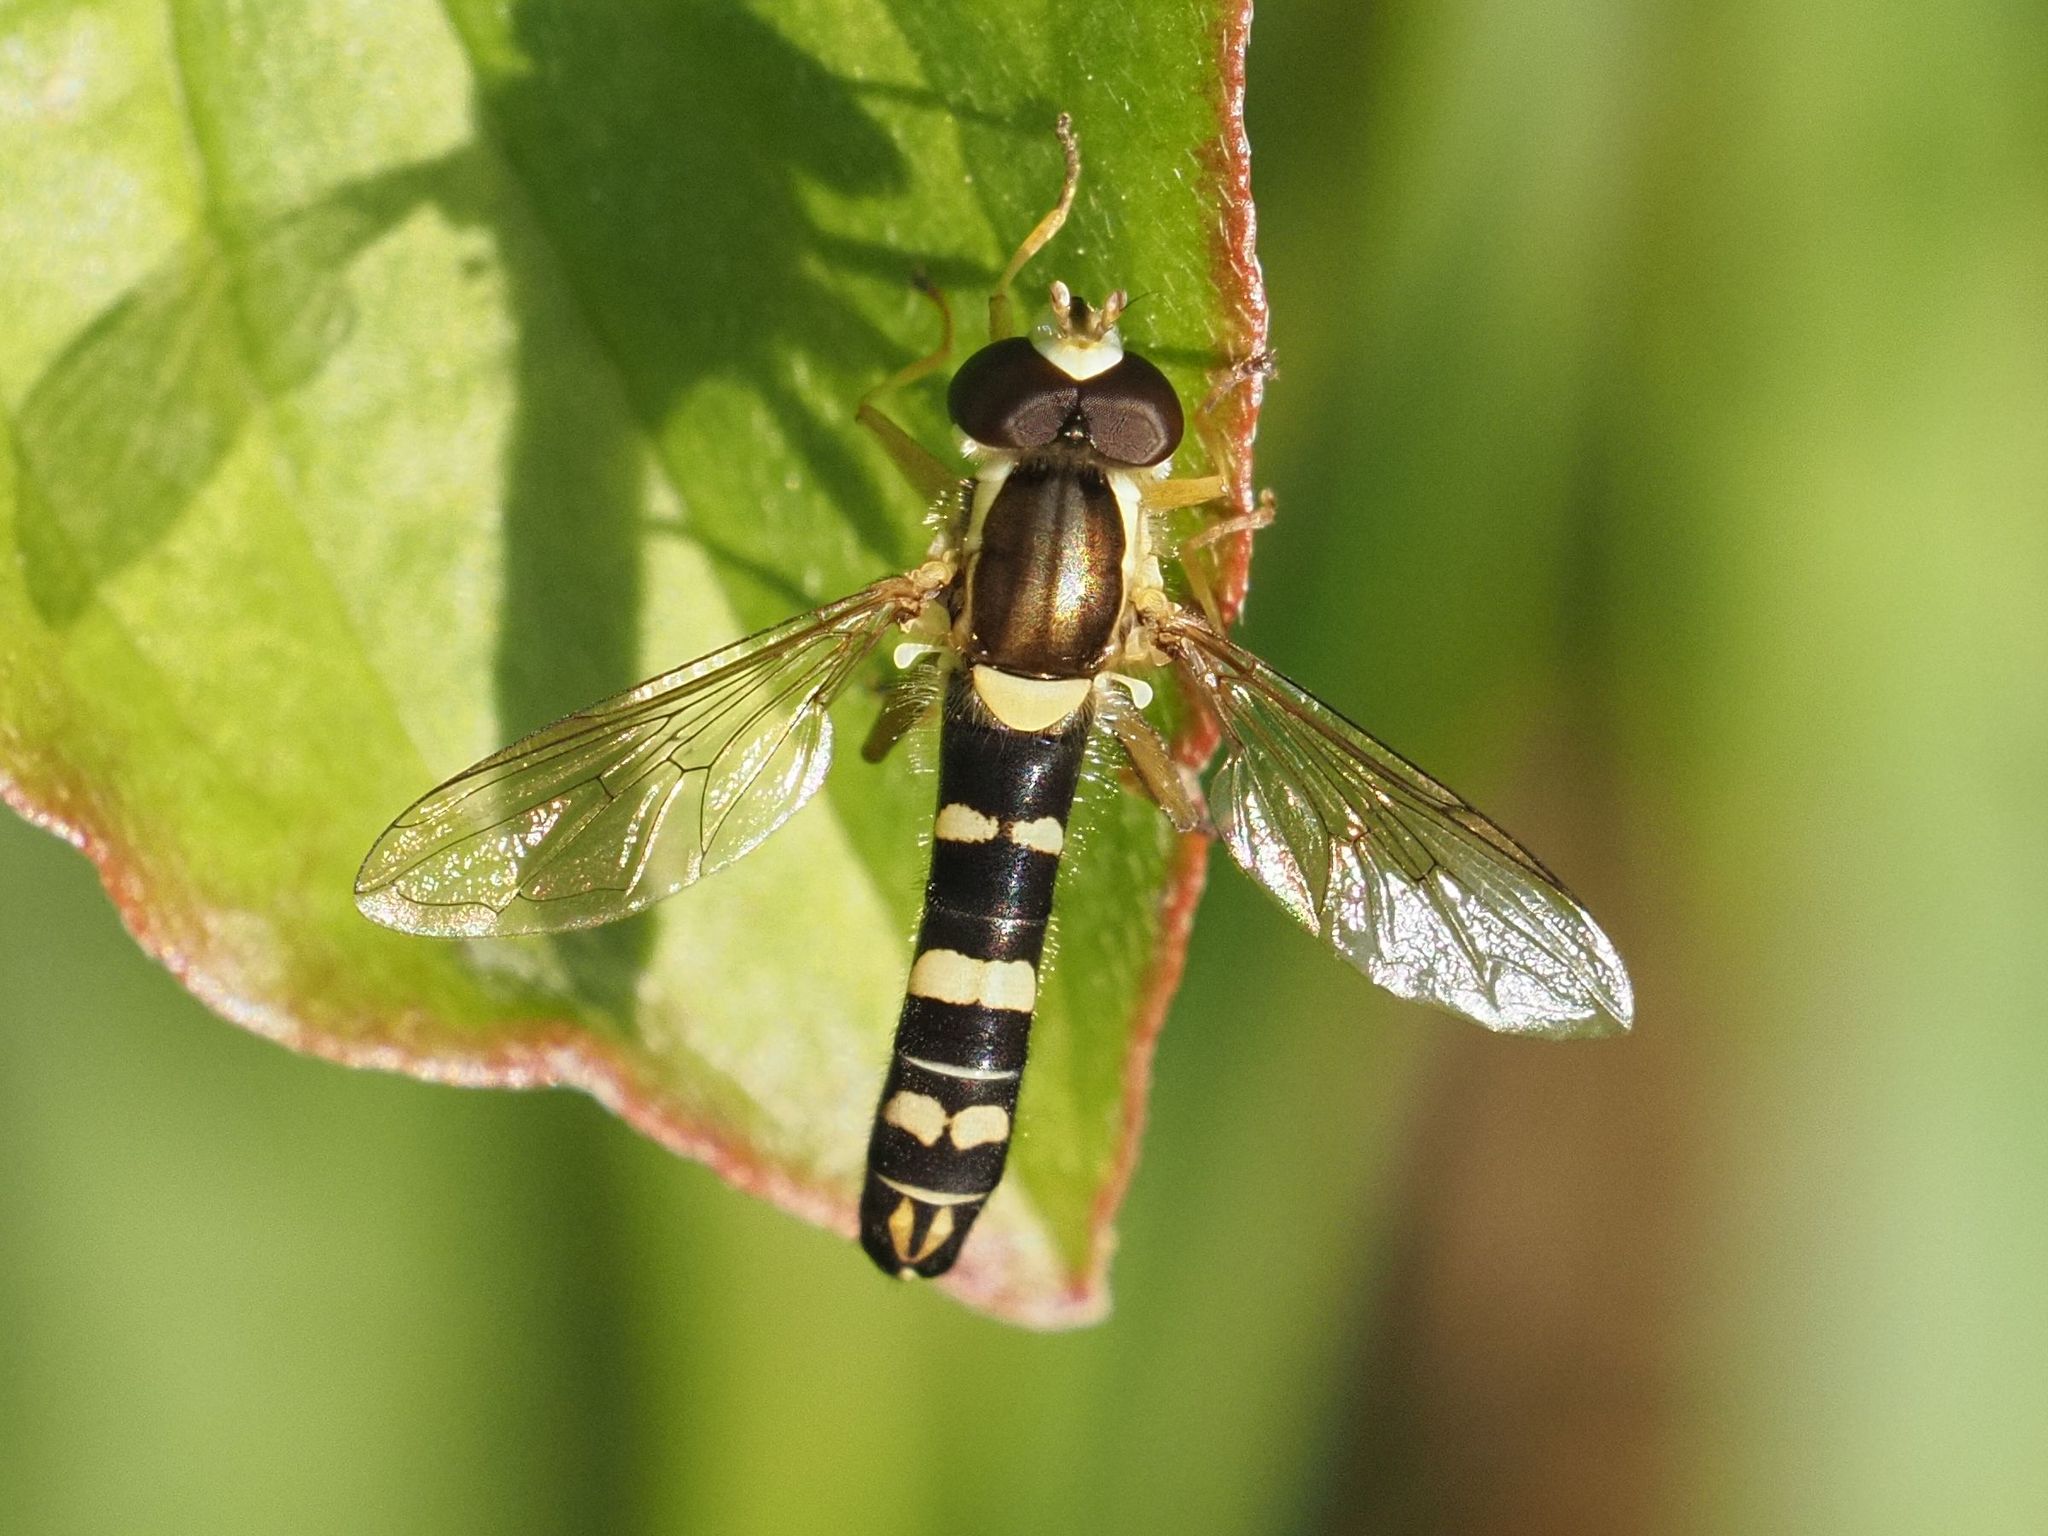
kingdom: Animalia
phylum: Arthropoda
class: Insecta
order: Diptera
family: Syrphidae
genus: Sphaerophoria
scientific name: Sphaerophoria scripta
